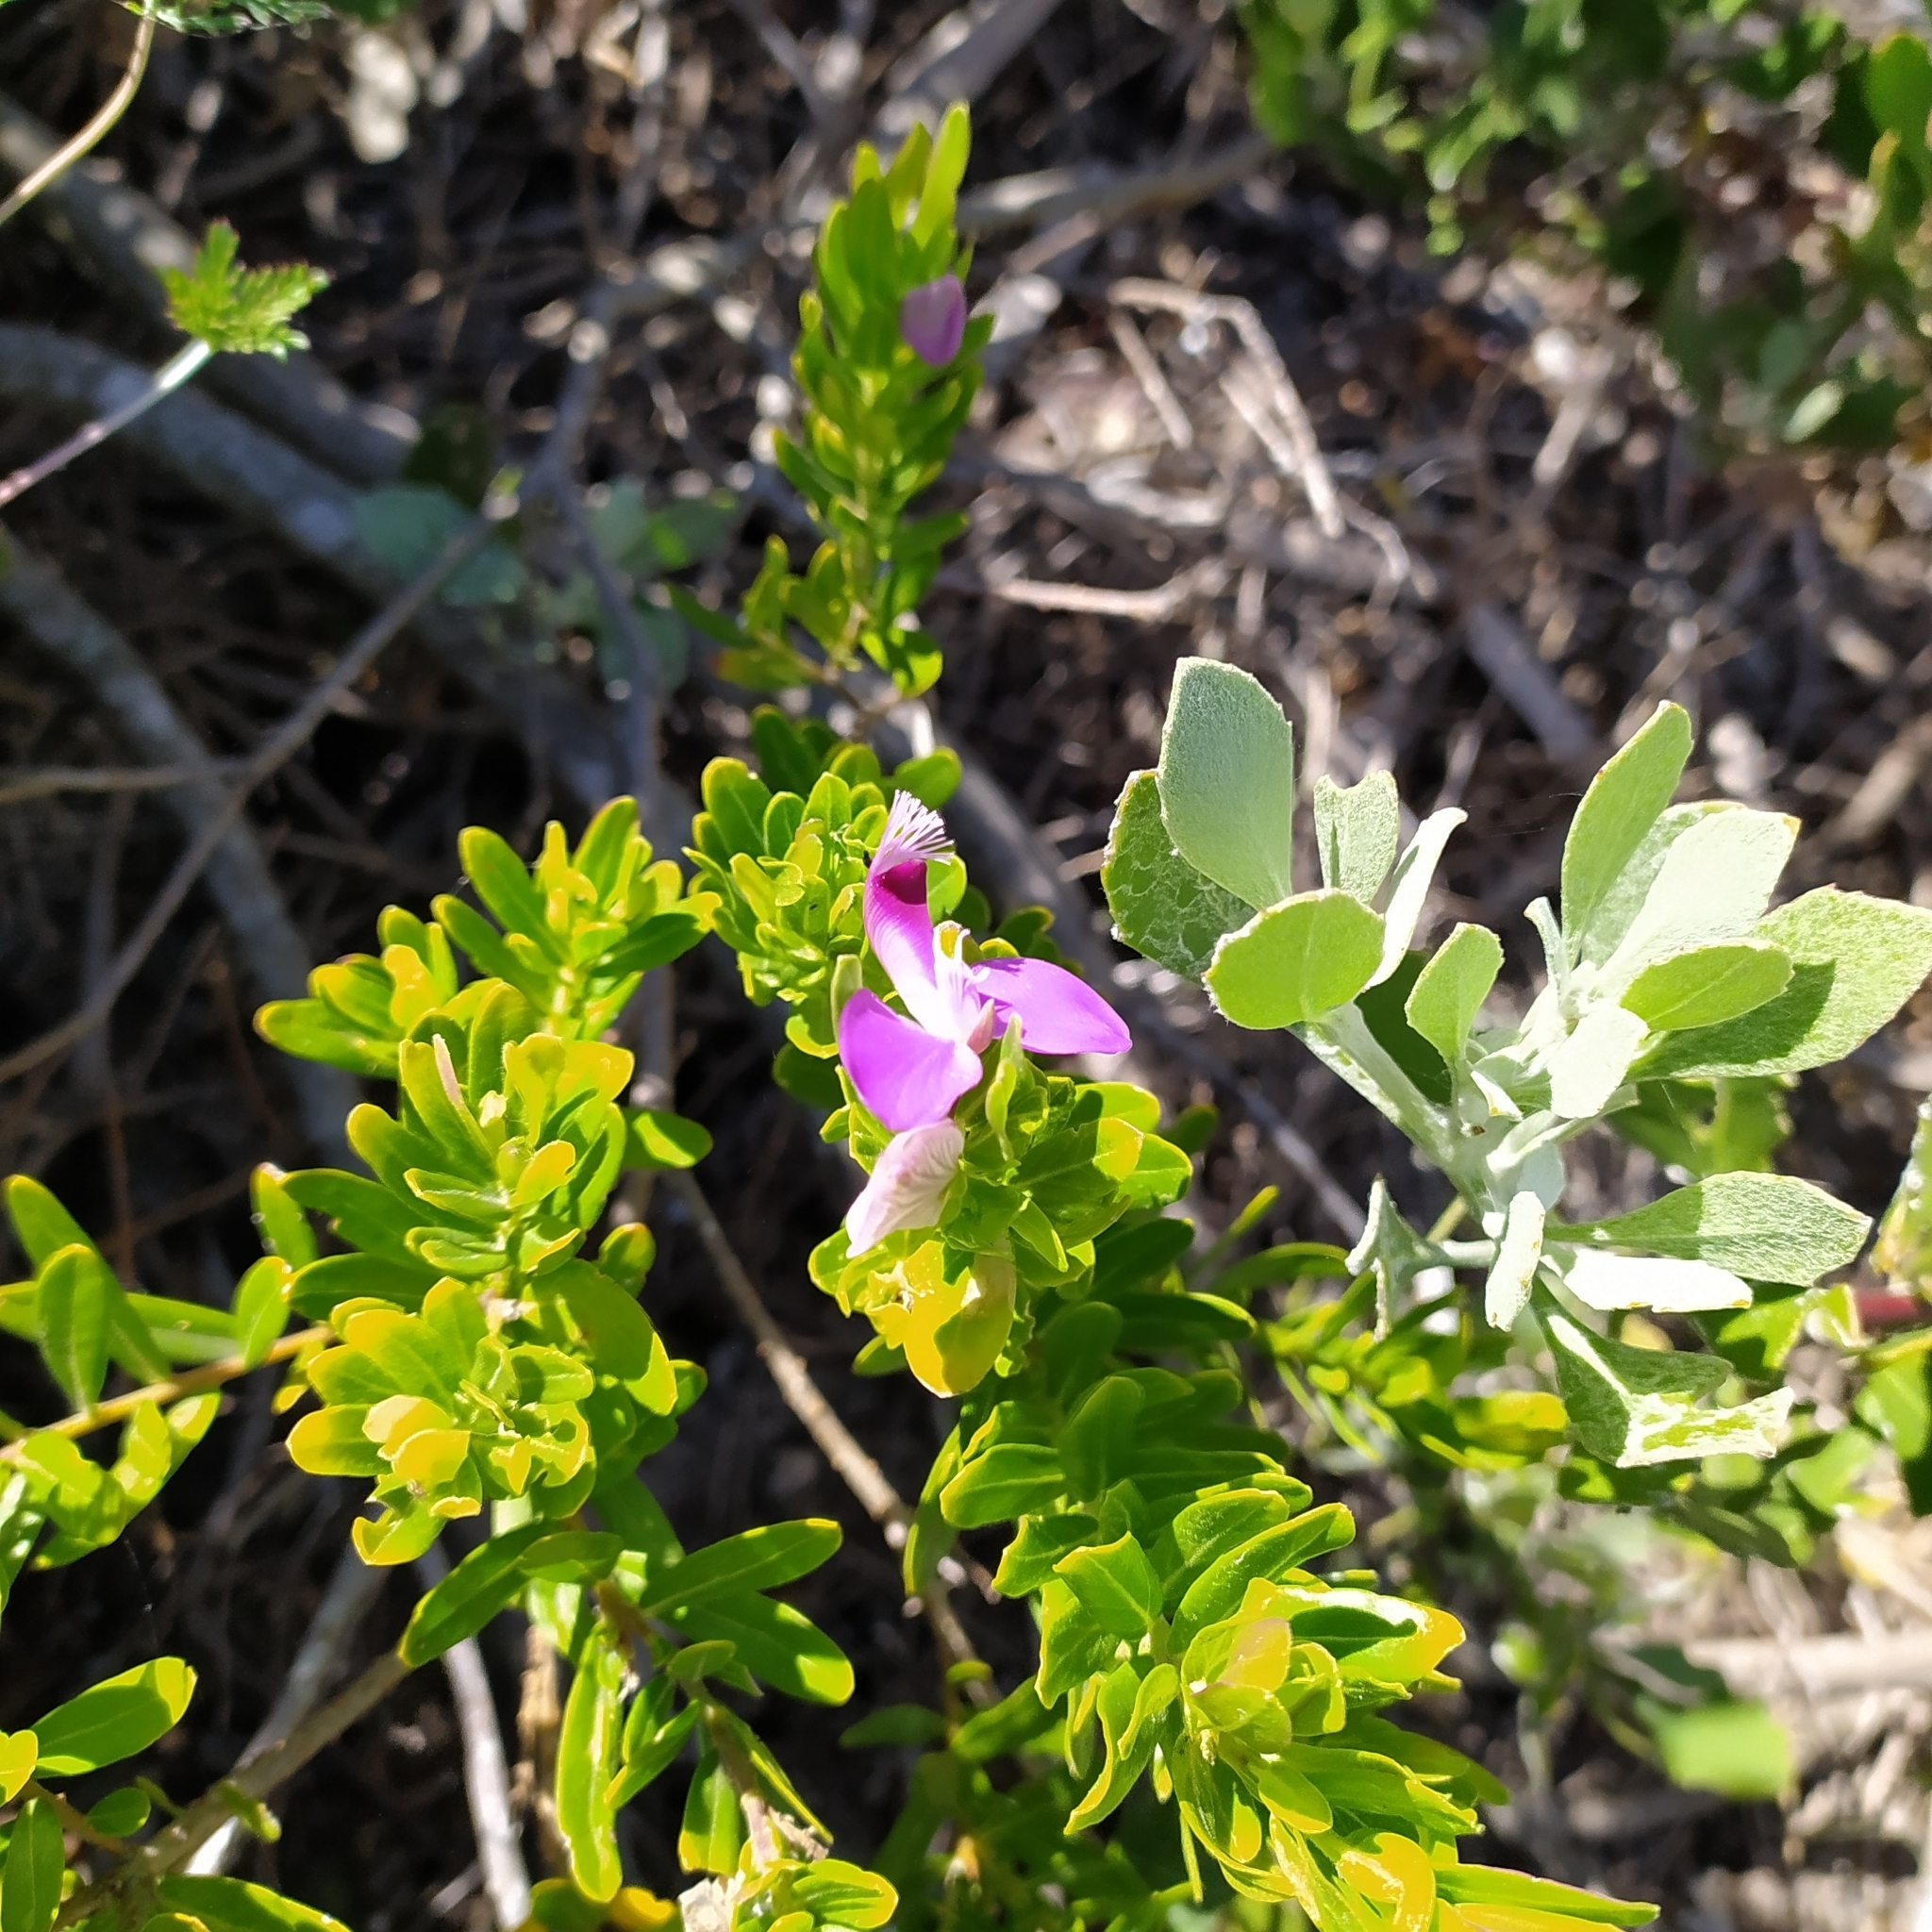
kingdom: Plantae
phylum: Tracheophyta
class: Magnoliopsida
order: Fabales
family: Polygalaceae
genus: Polygala
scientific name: Polygala myrtifolia
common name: Myrtle-leaf milkwort
